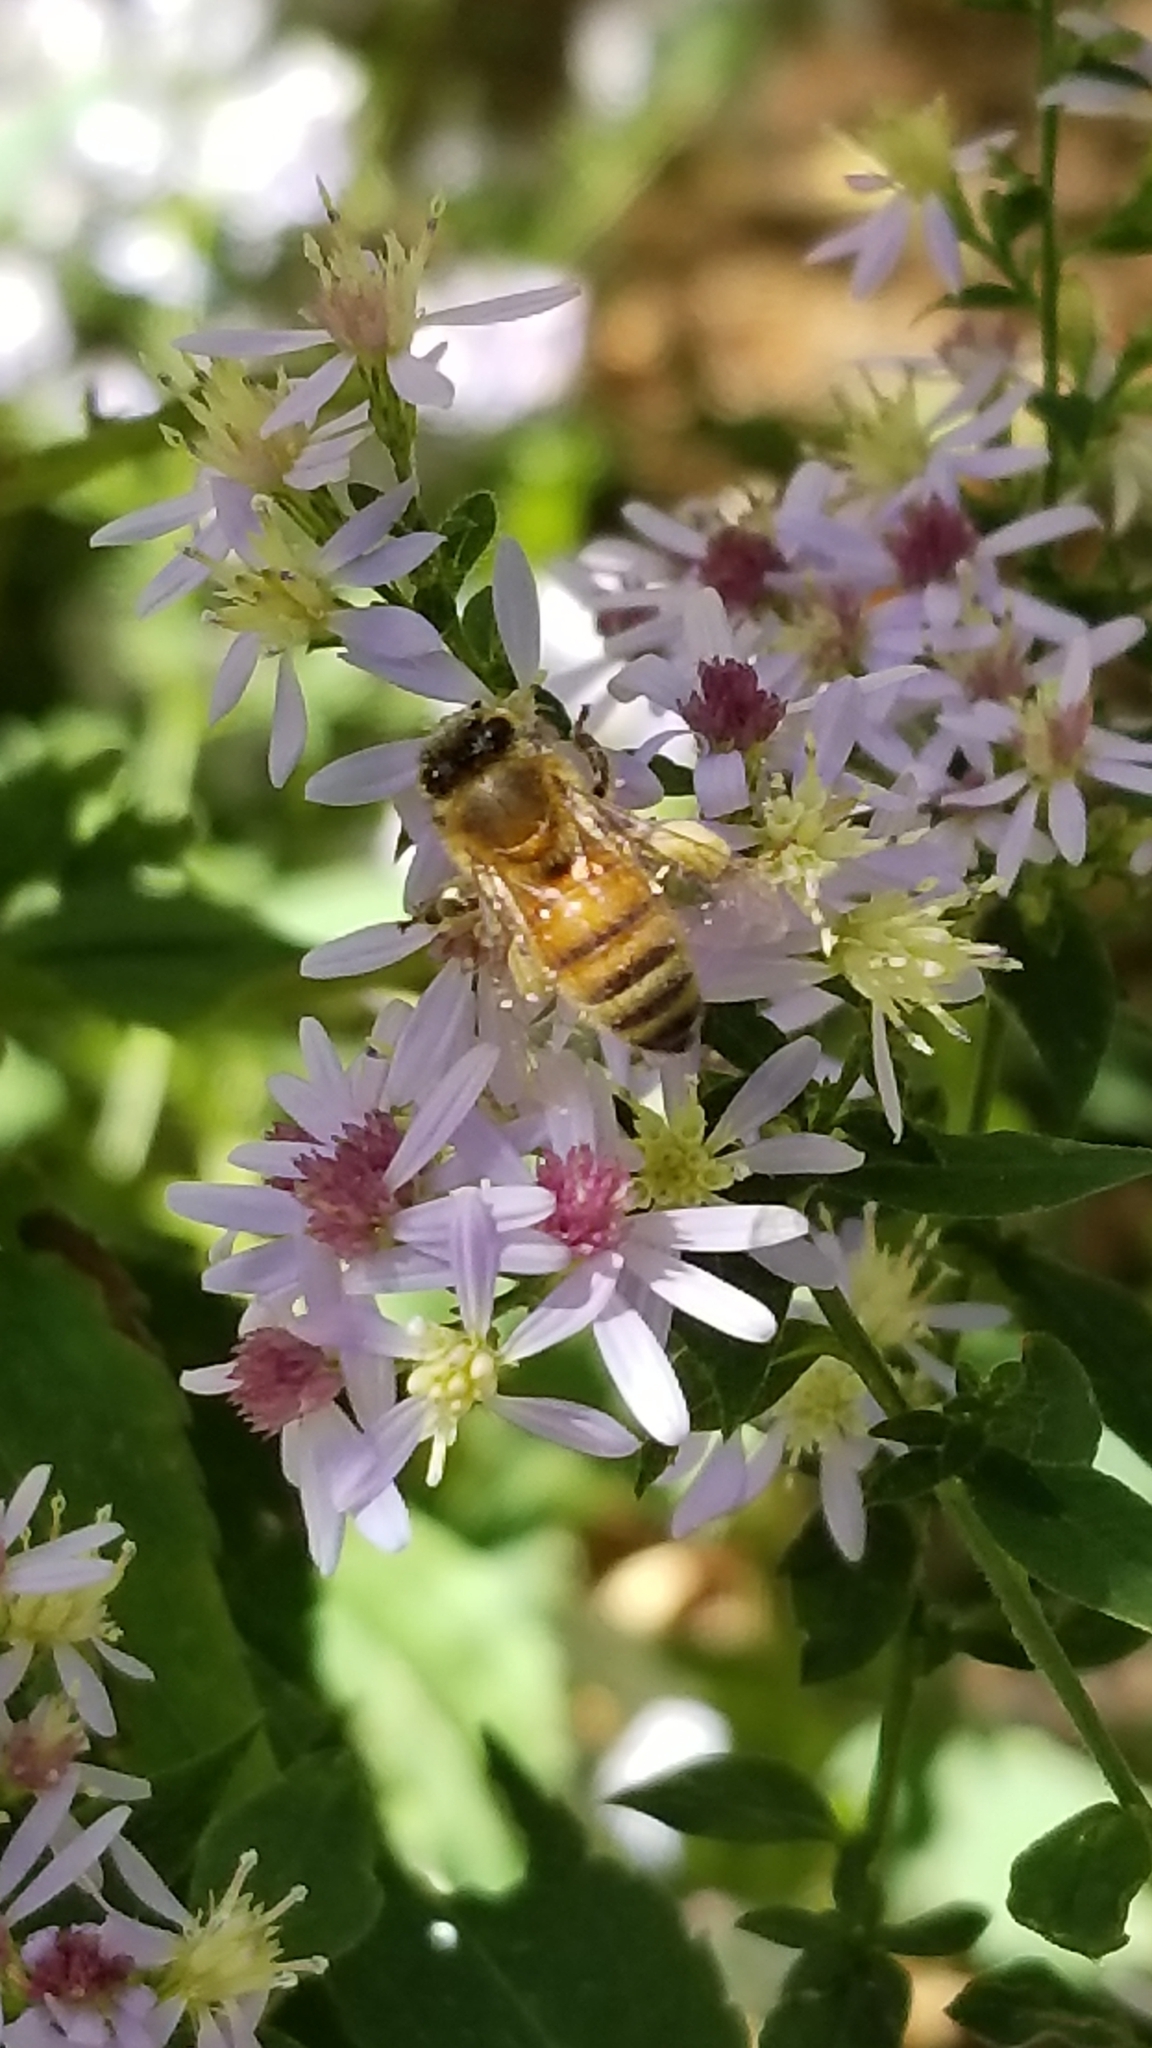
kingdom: Animalia
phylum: Arthropoda
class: Insecta
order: Hymenoptera
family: Apidae
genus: Apis
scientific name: Apis mellifera
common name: Honey bee
